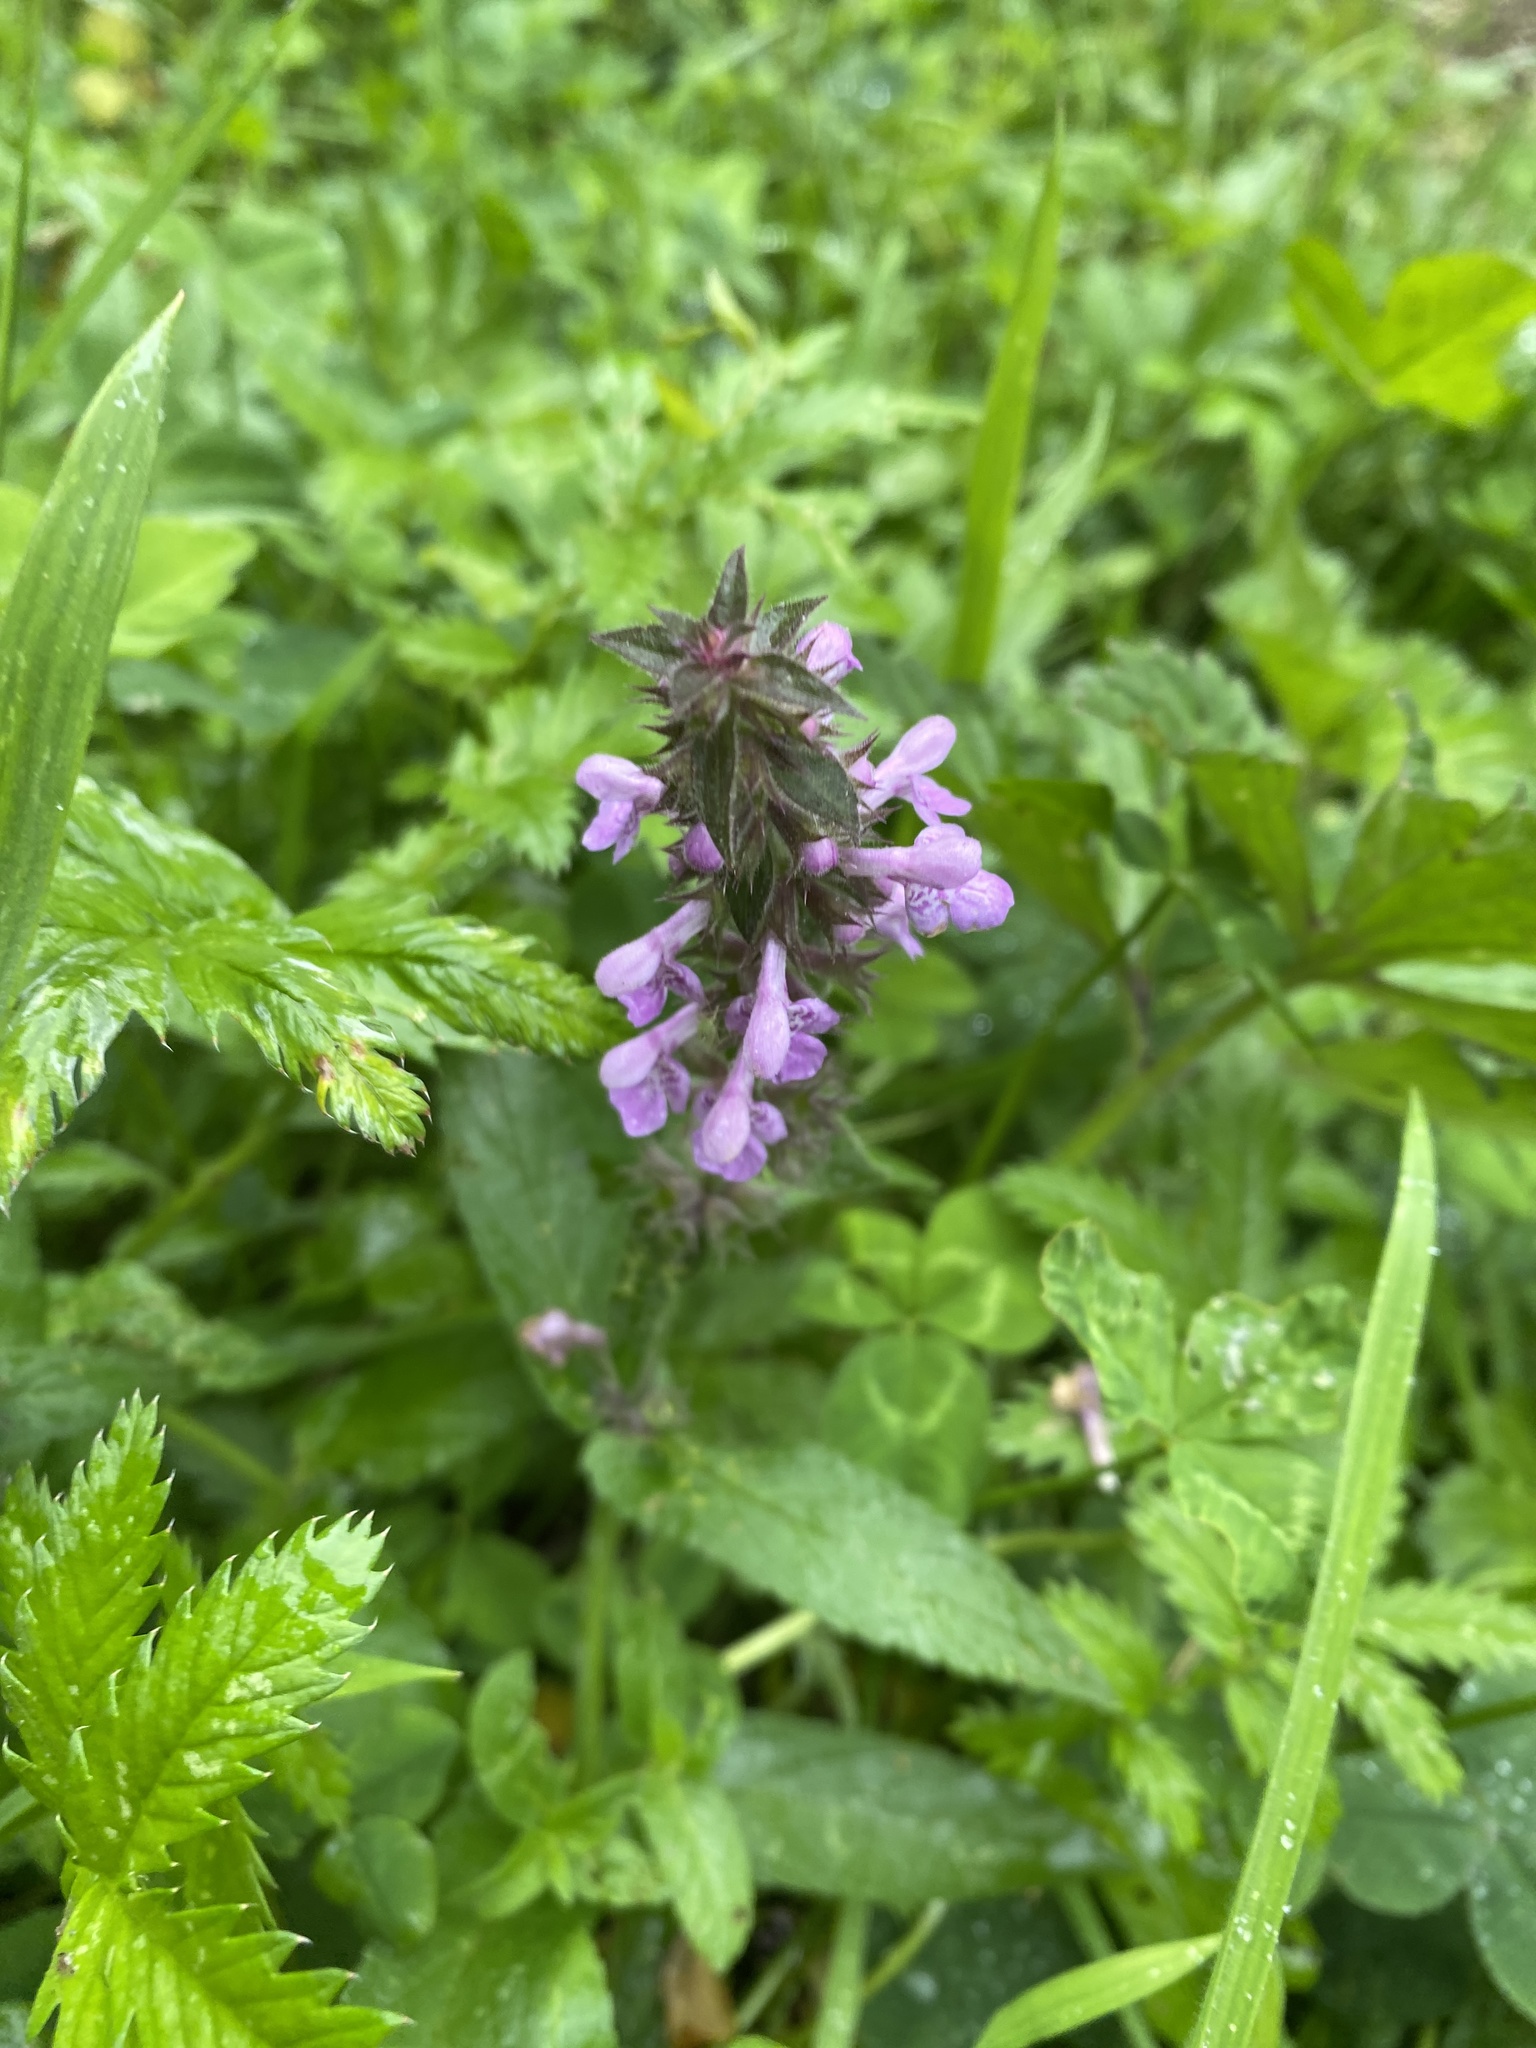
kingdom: Plantae
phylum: Tracheophyta
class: Magnoliopsida
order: Lamiales
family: Lamiaceae
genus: Stachys
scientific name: Stachys palustris
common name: Marsh woundwort
